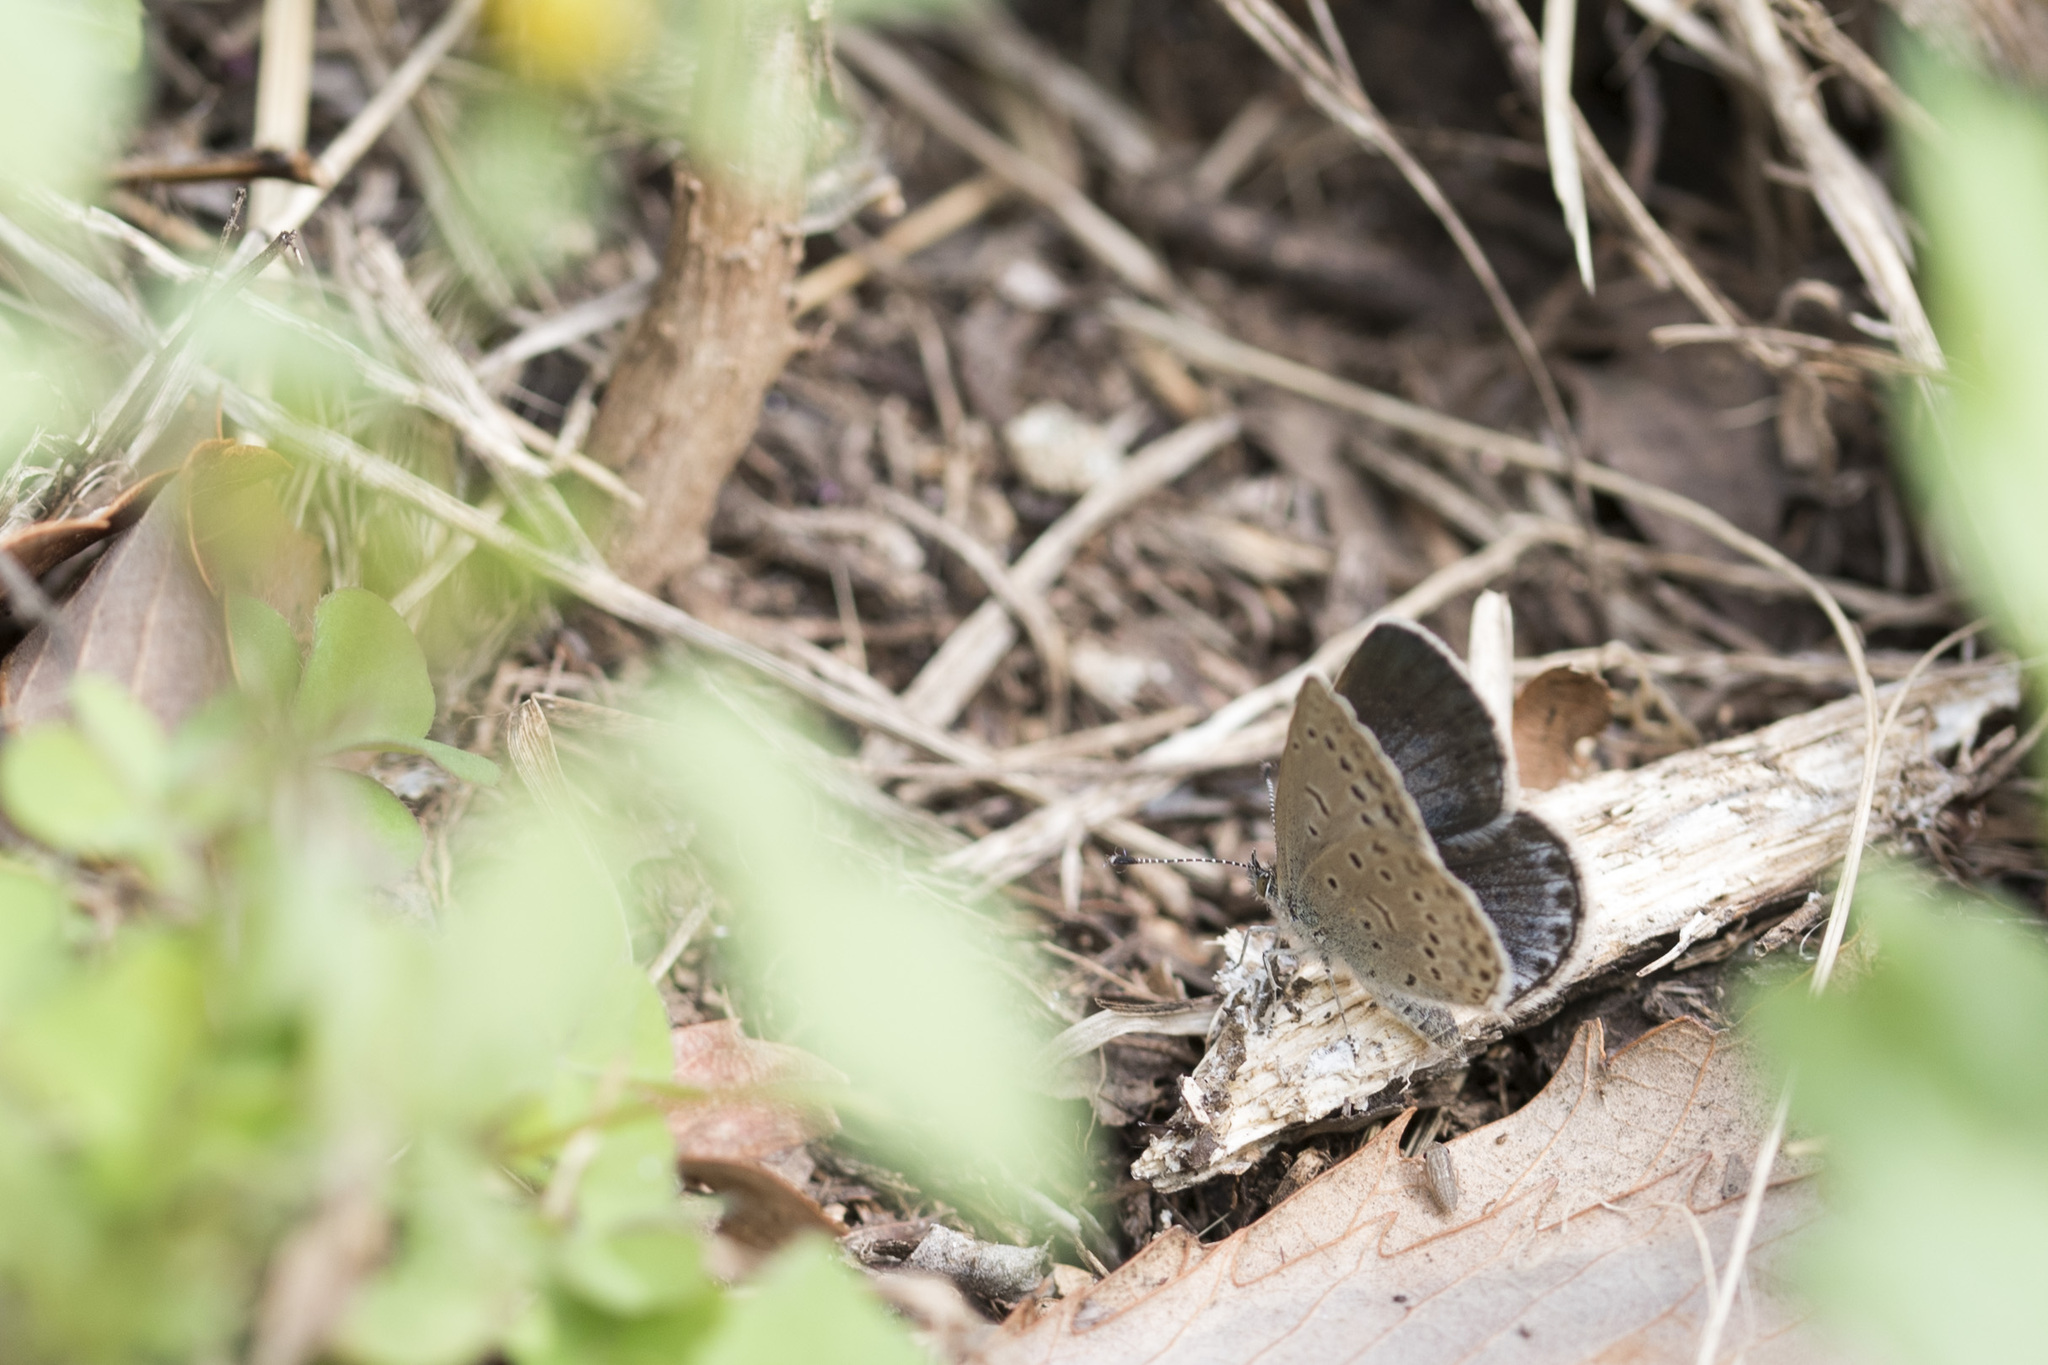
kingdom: Animalia
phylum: Arthropoda
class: Insecta
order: Lepidoptera
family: Lycaenidae
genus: Pseudozizeeria
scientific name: Pseudozizeeria maha
